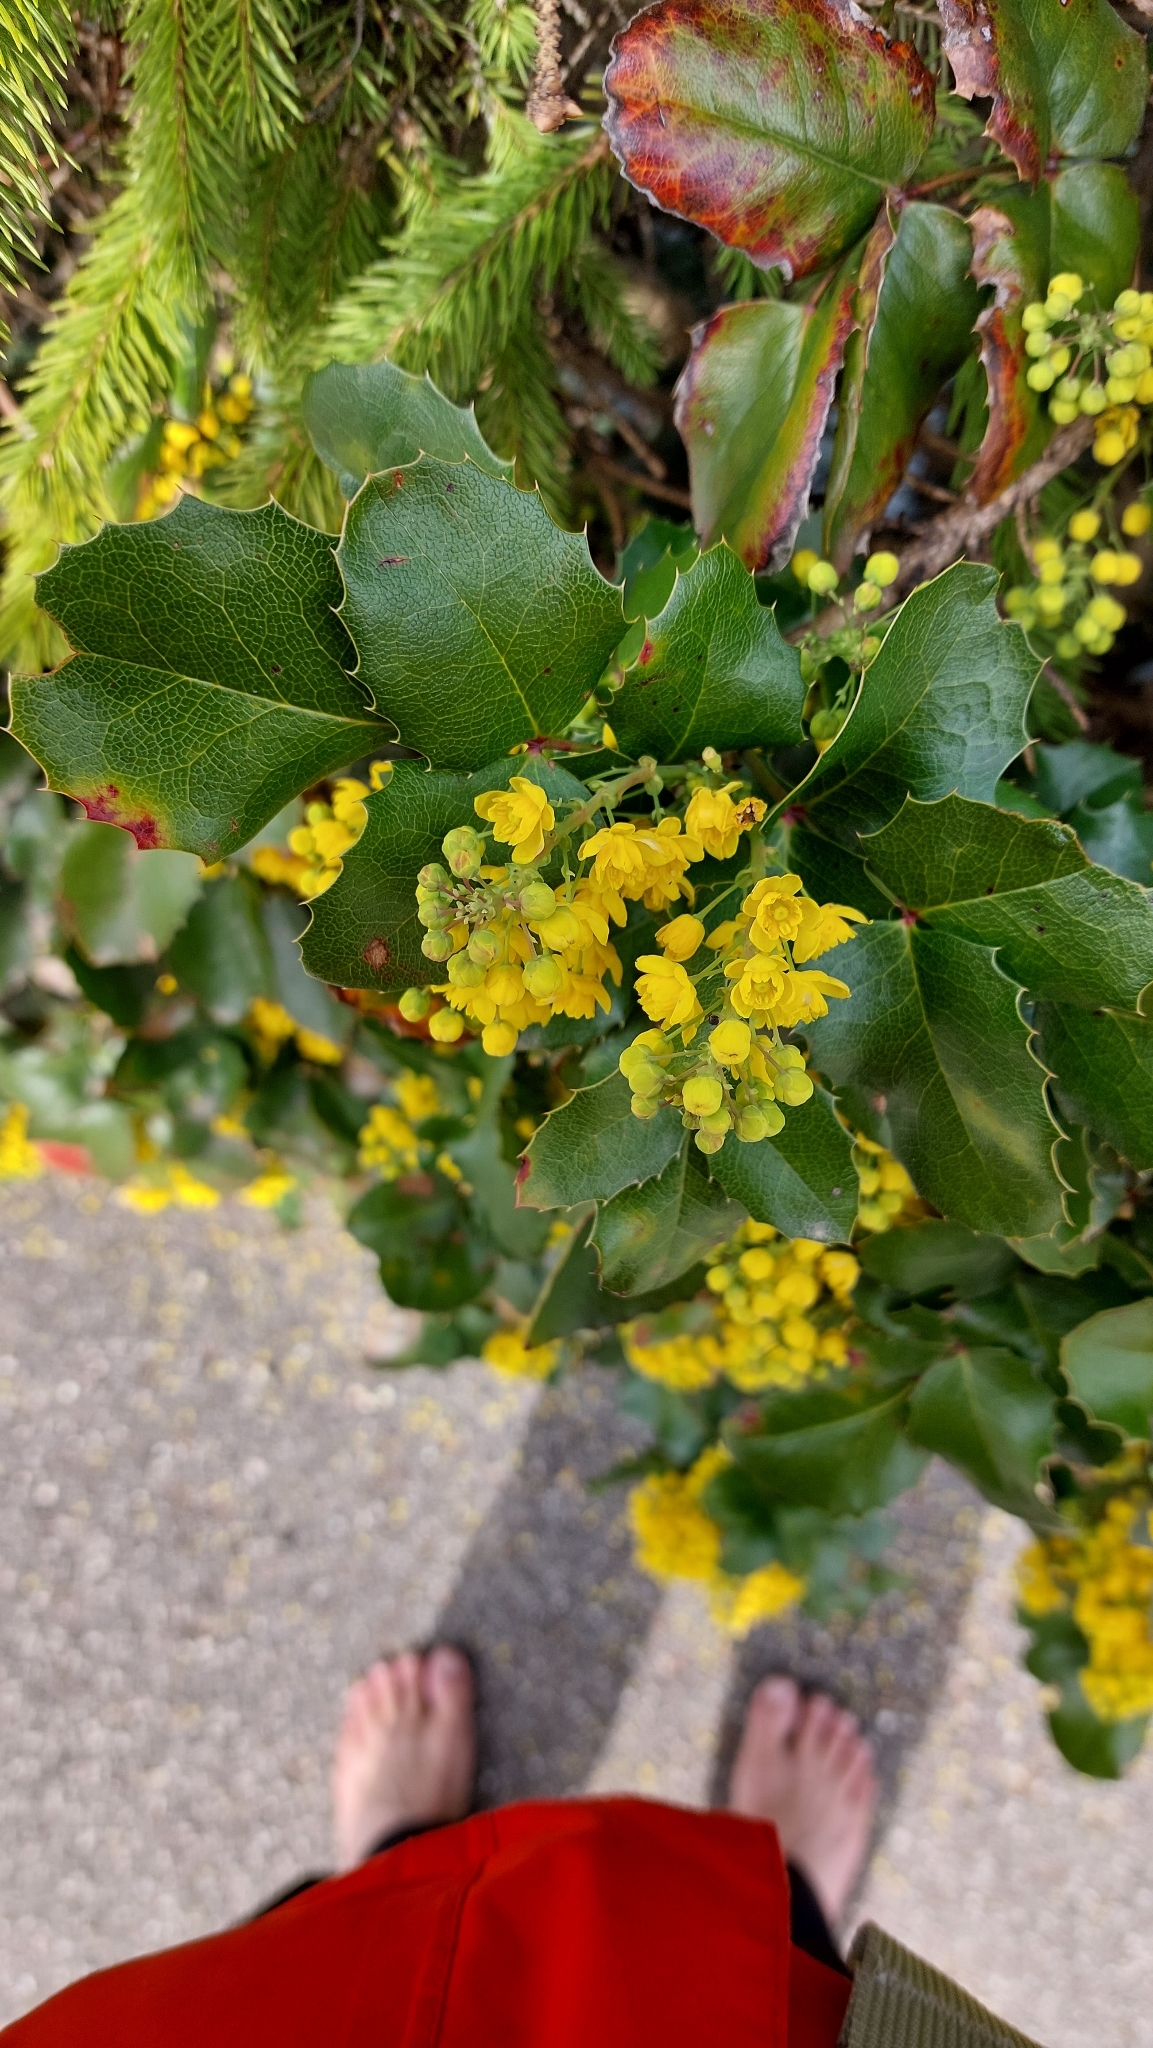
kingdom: Plantae
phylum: Tracheophyta
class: Magnoliopsida
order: Ranunculales
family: Berberidaceae
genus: Mahonia
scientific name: Mahonia aquifolium
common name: Oregon-grape
